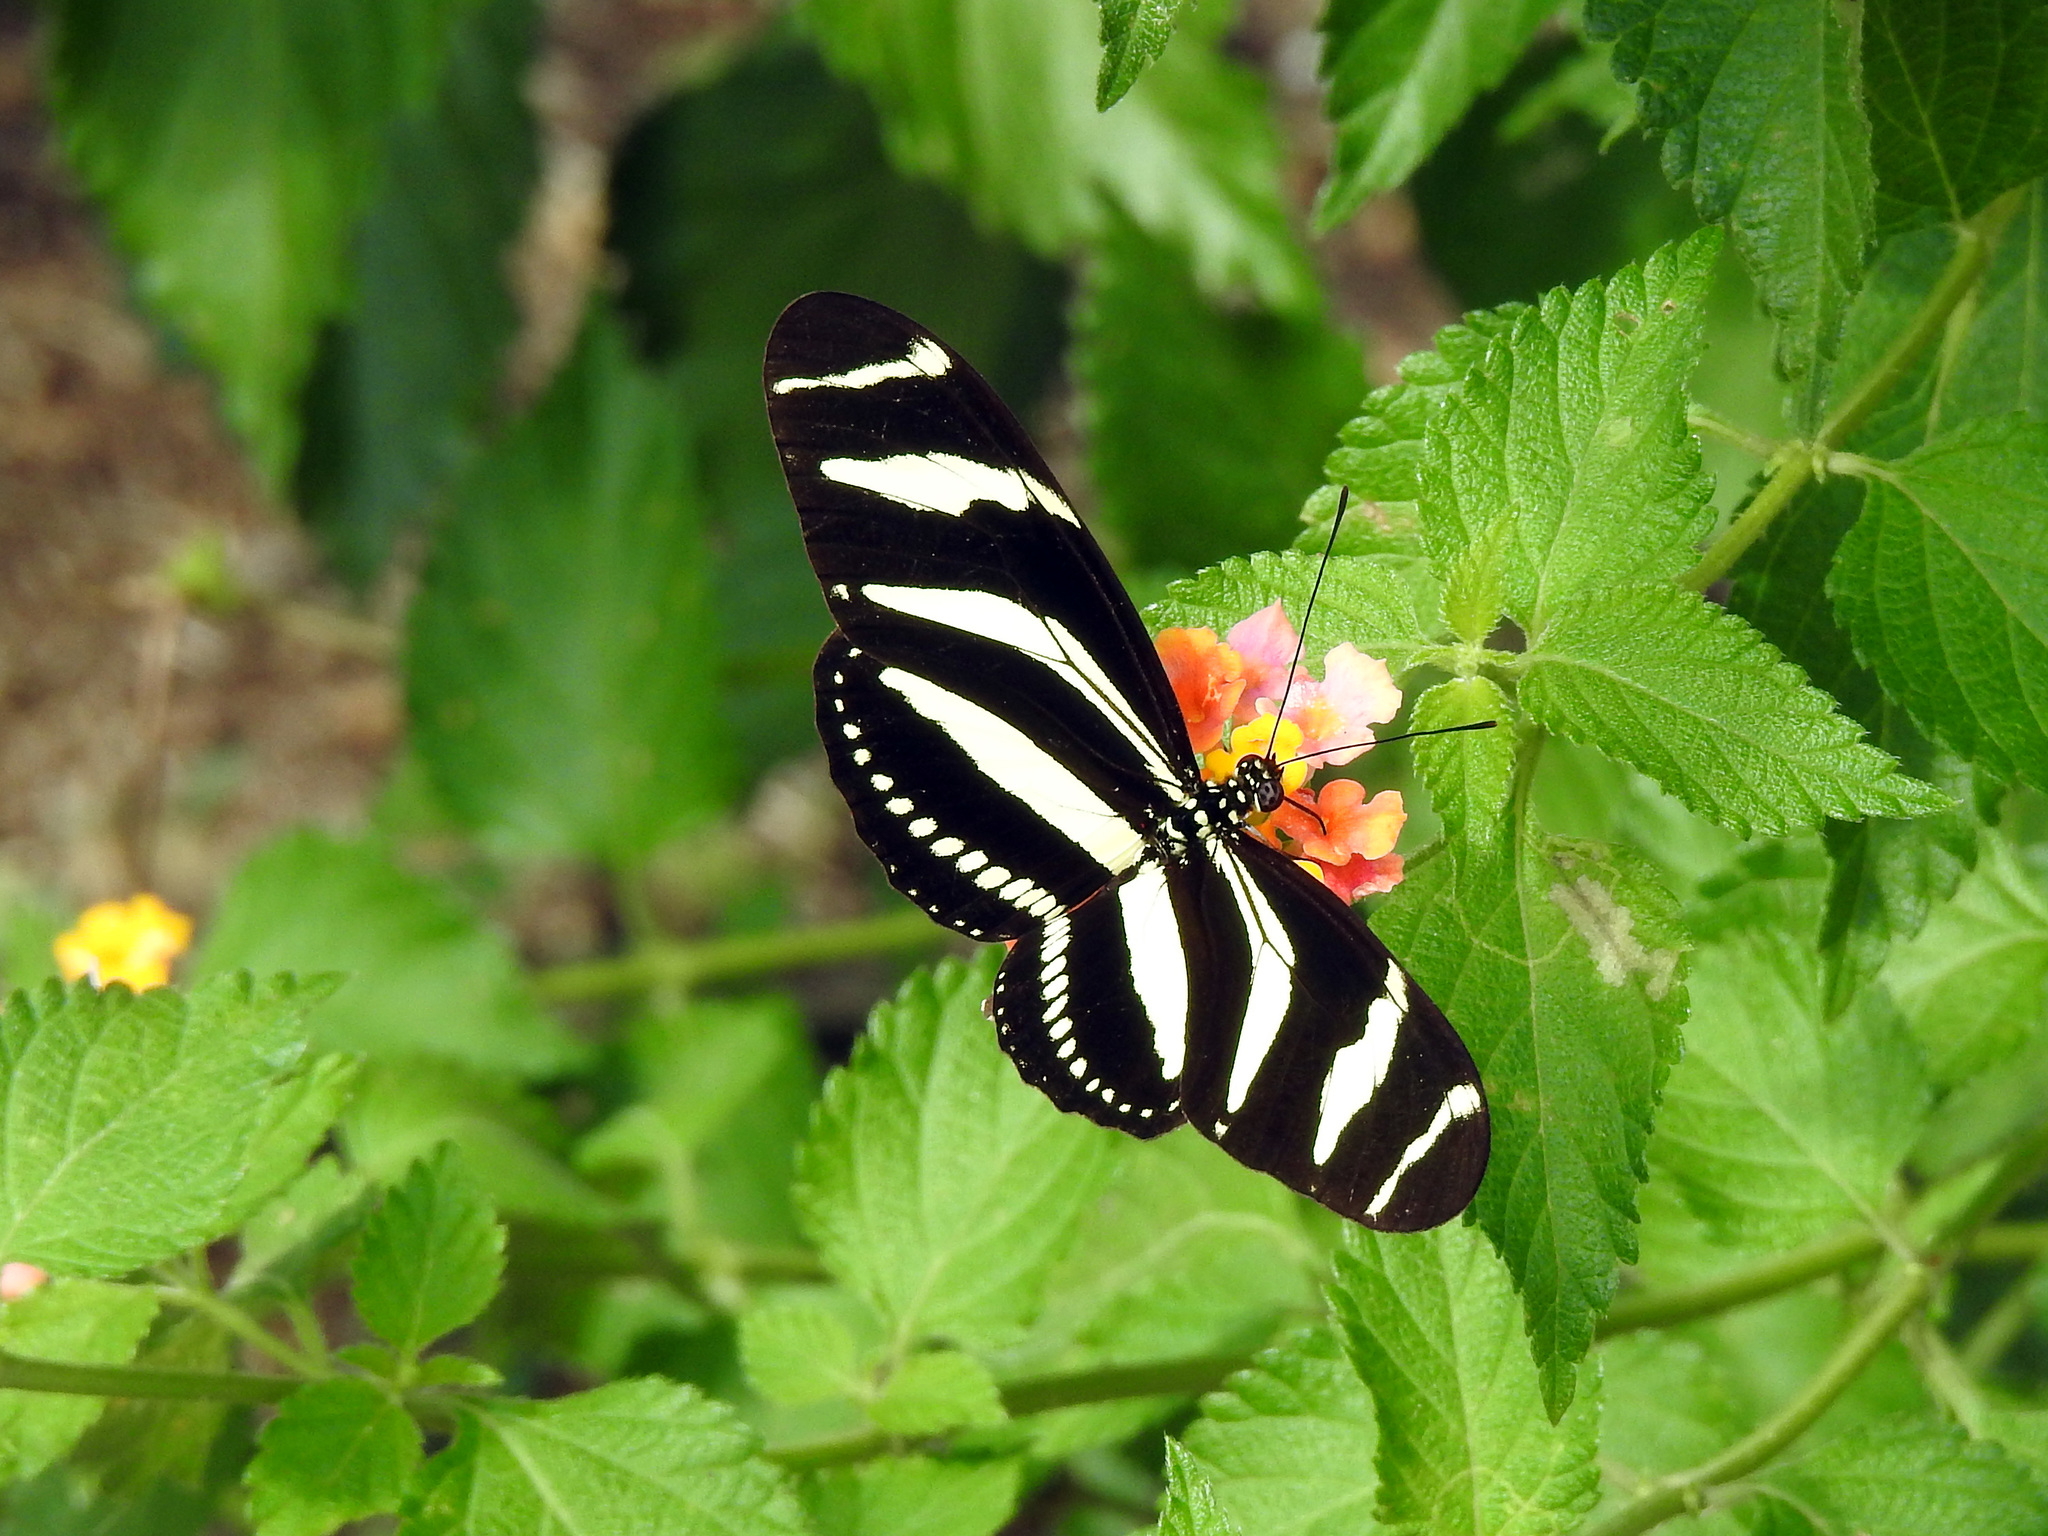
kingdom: Animalia
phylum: Arthropoda
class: Insecta
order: Lepidoptera
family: Nymphalidae
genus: Heliconius
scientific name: Heliconius charithonia
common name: Zebra long wing
